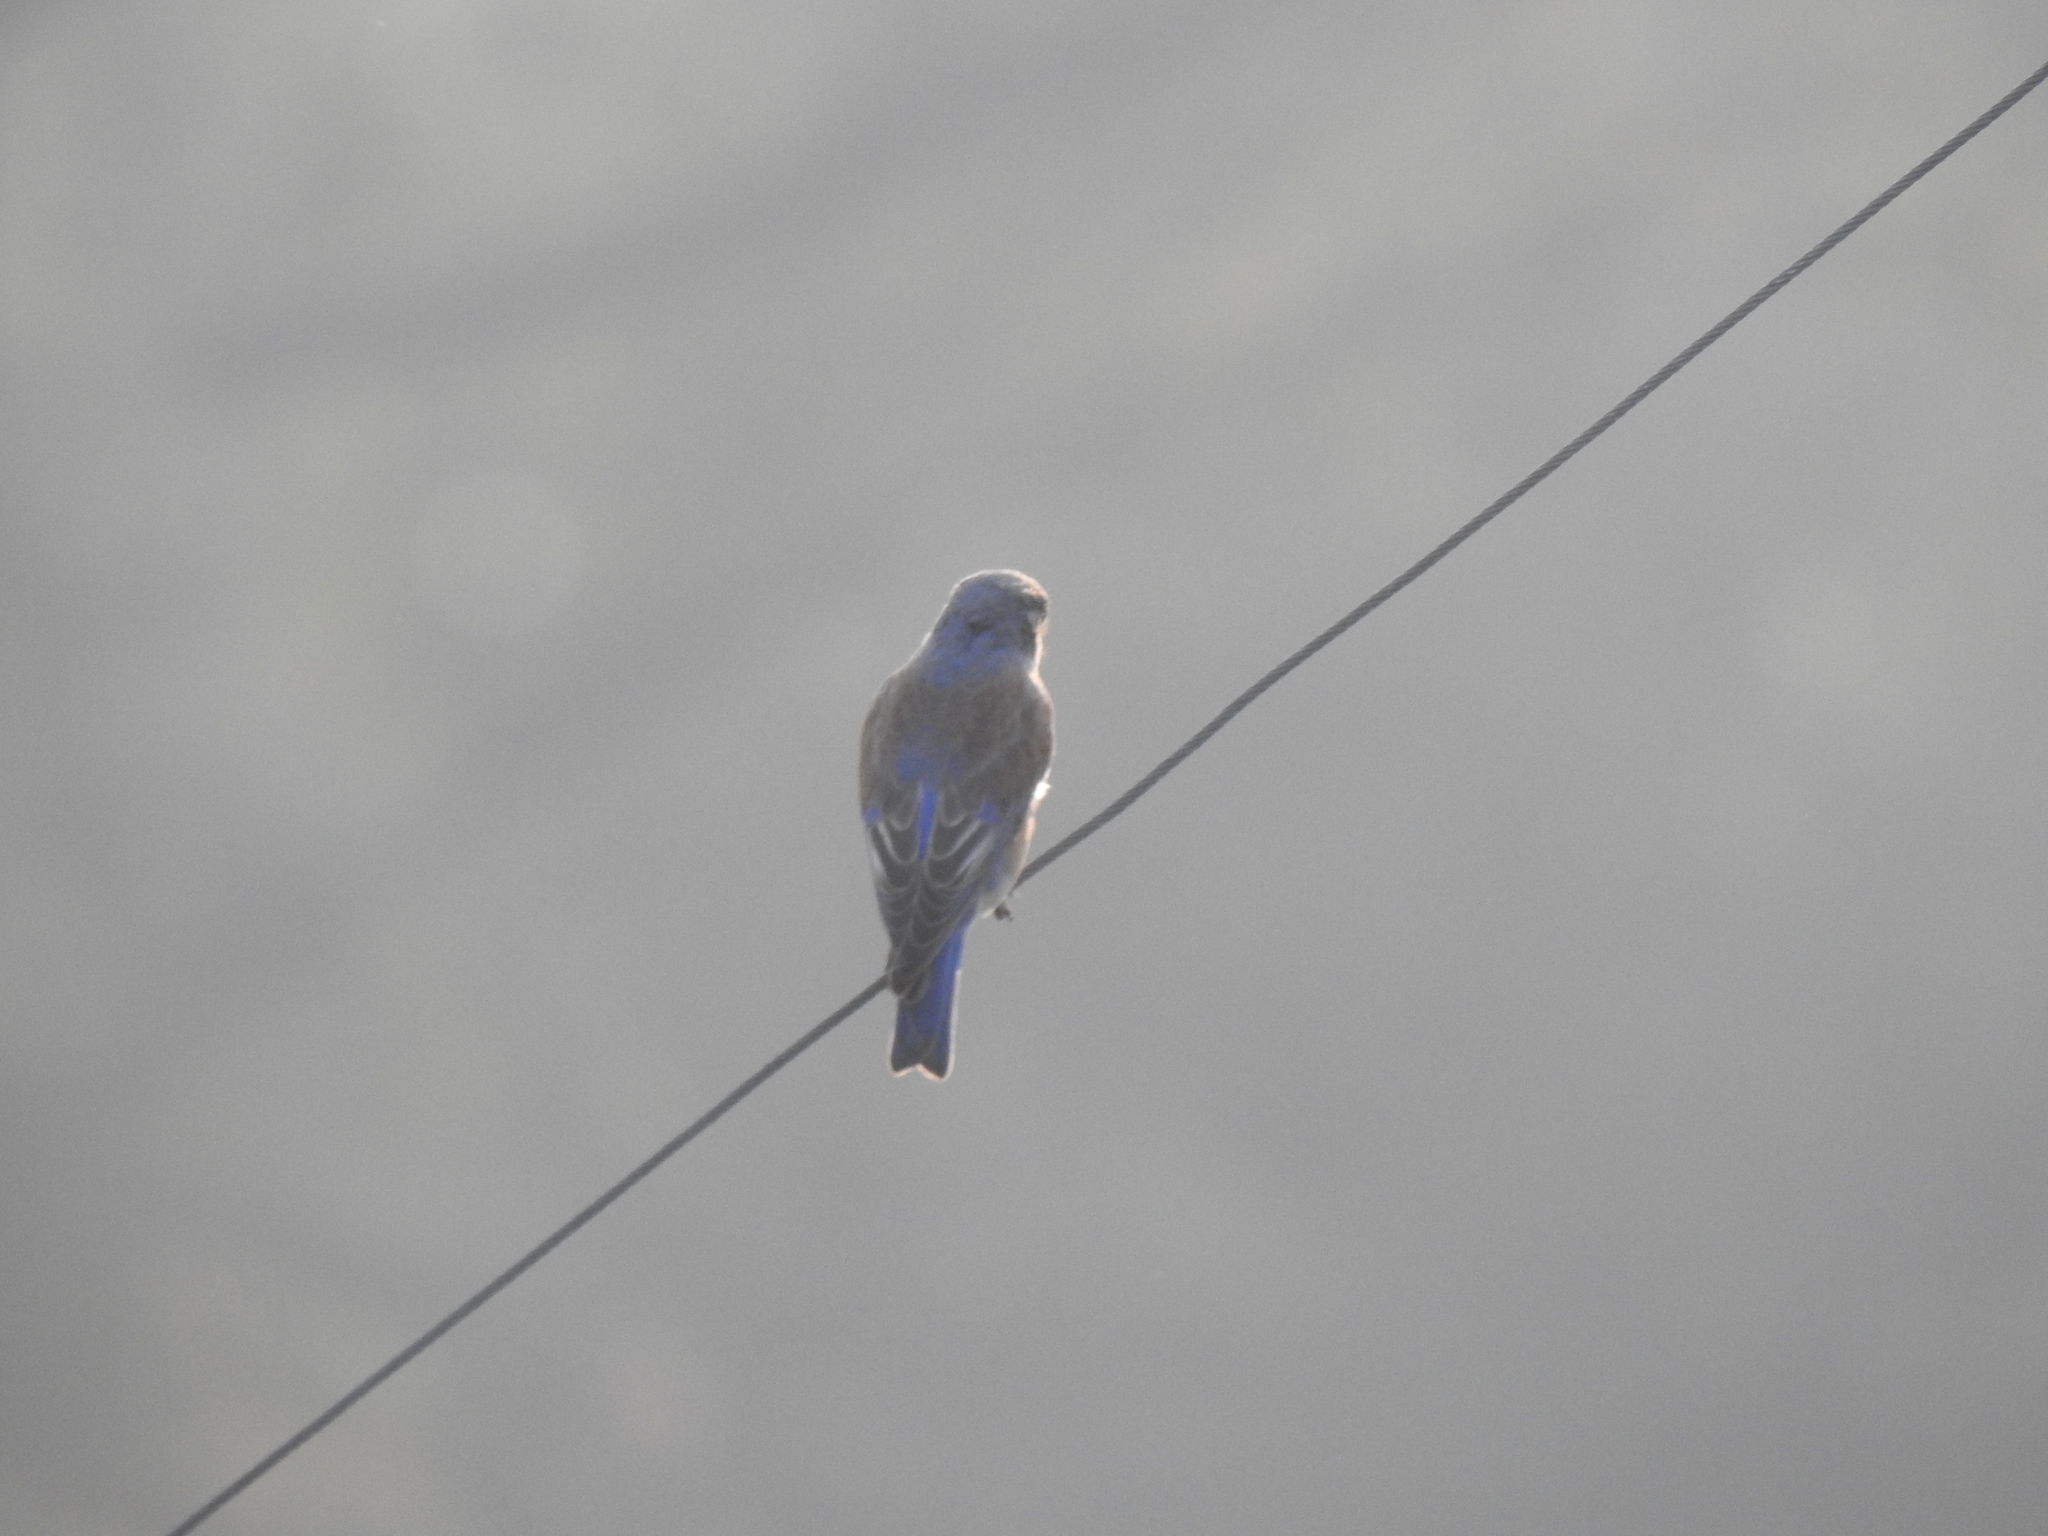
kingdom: Animalia
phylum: Chordata
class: Aves
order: Passeriformes
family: Turdidae
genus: Sialia
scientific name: Sialia mexicana
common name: Western bluebird
